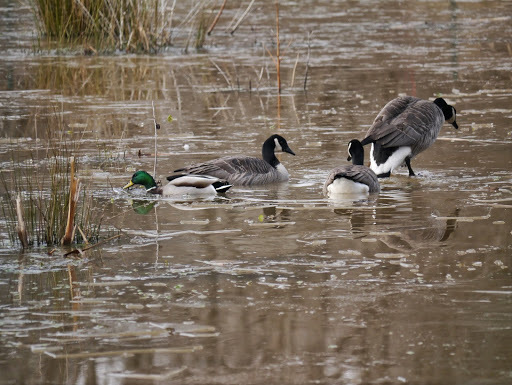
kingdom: Animalia
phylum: Chordata
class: Aves
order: Anseriformes
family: Anatidae
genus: Anas
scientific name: Anas platyrhynchos
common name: Mallard
